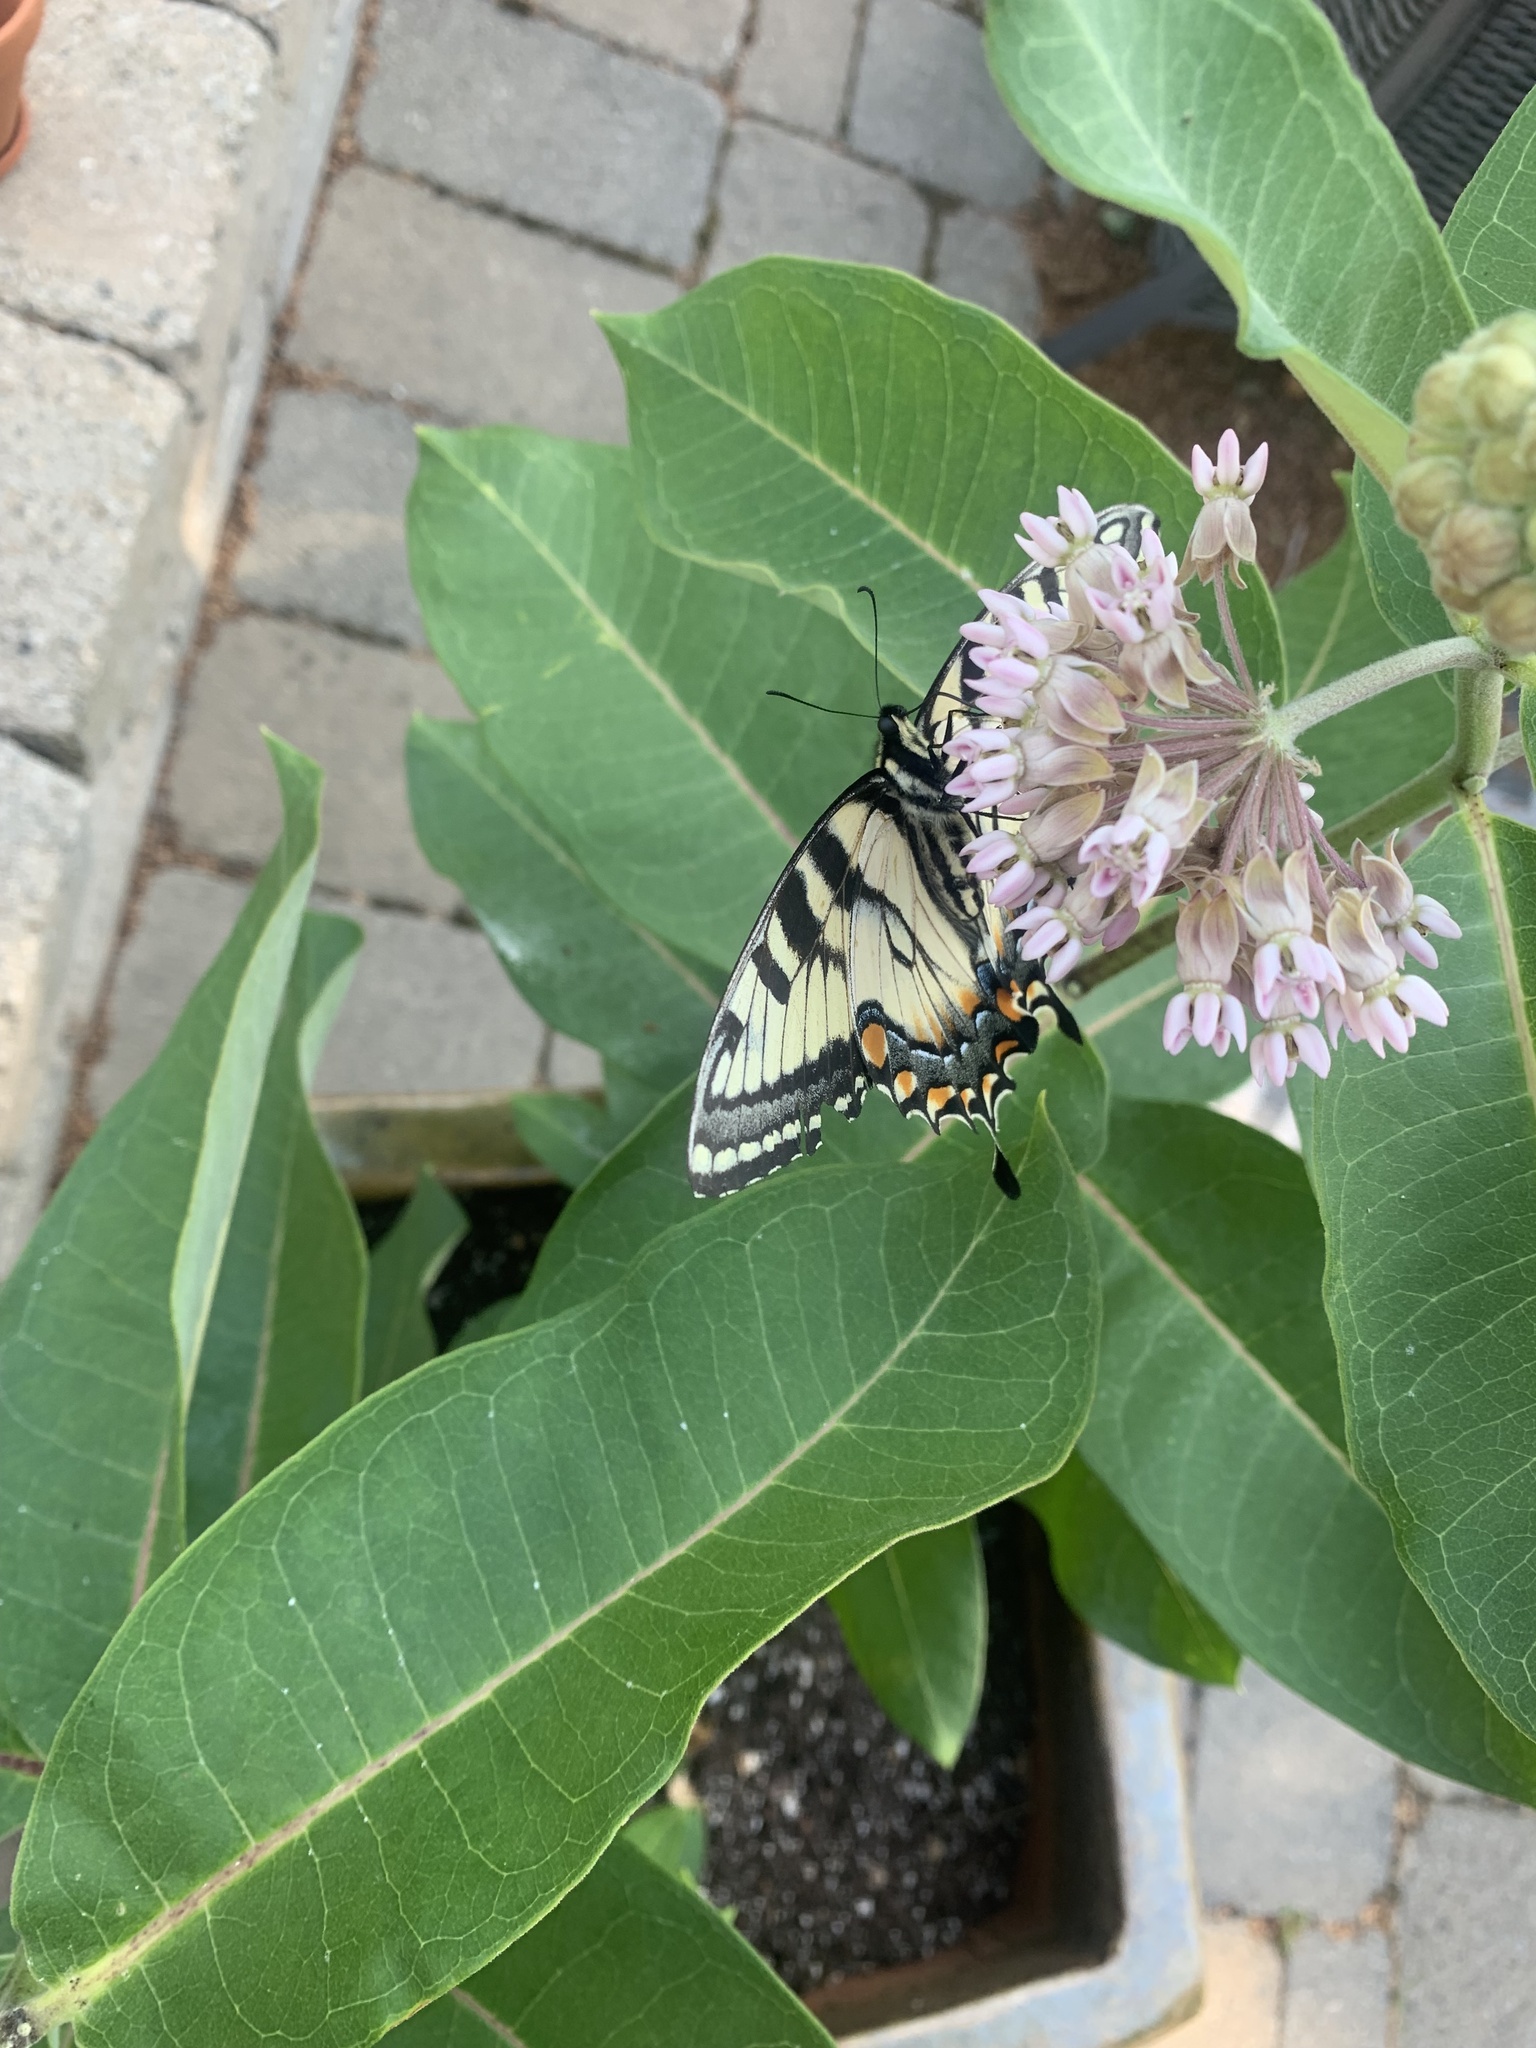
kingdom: Animalia
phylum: Arthropoda
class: Insecta
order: Lepidoptera
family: Papilionidae
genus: Papilio
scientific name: Papilio glaucus
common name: Tiger swallowtail
